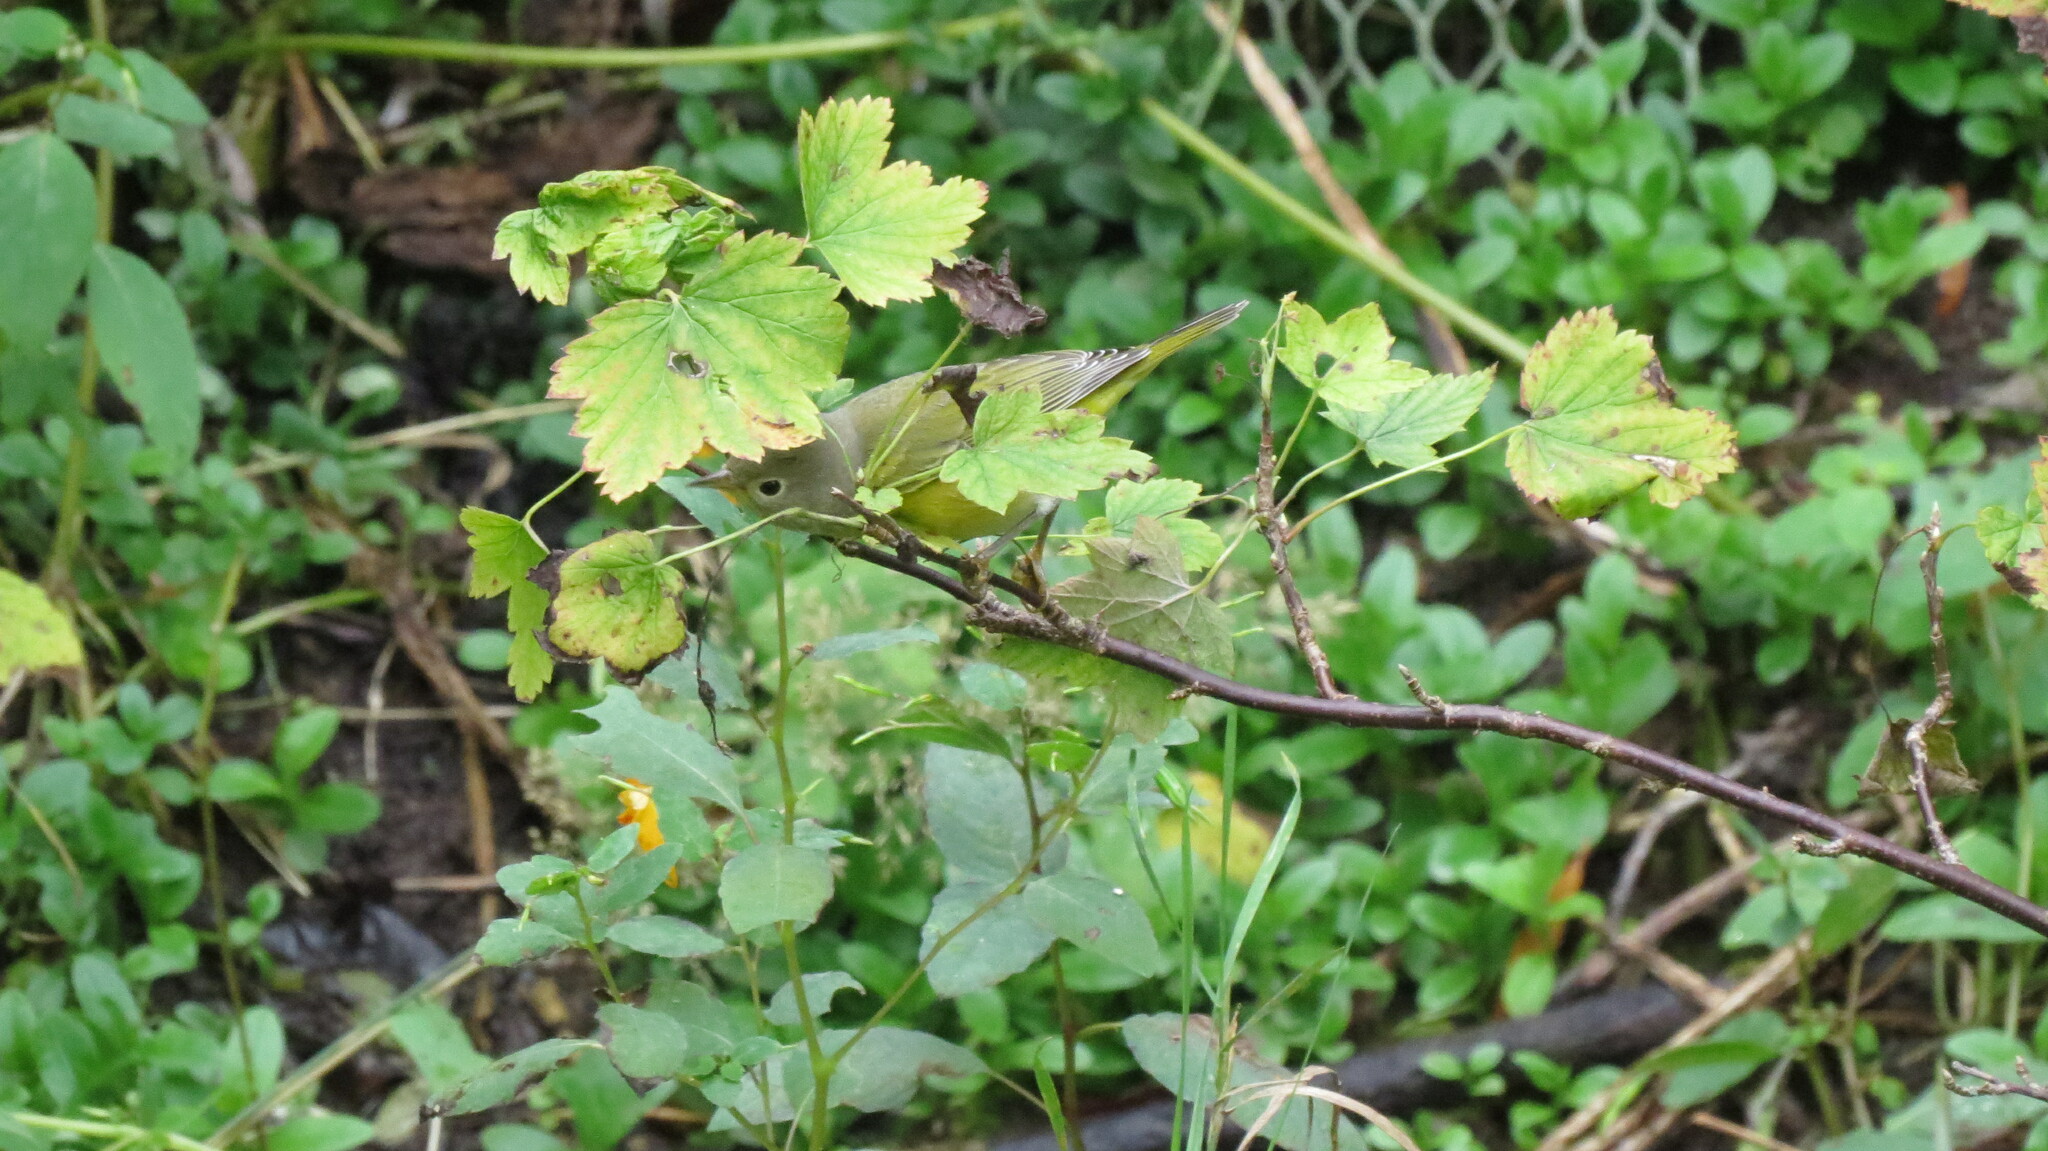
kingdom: Animalia
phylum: Chordata
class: Aves
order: Passeriformes
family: Parulidae
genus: Leiothlypis
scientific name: Leiothlypis ruficapilla
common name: Nashville warbler
